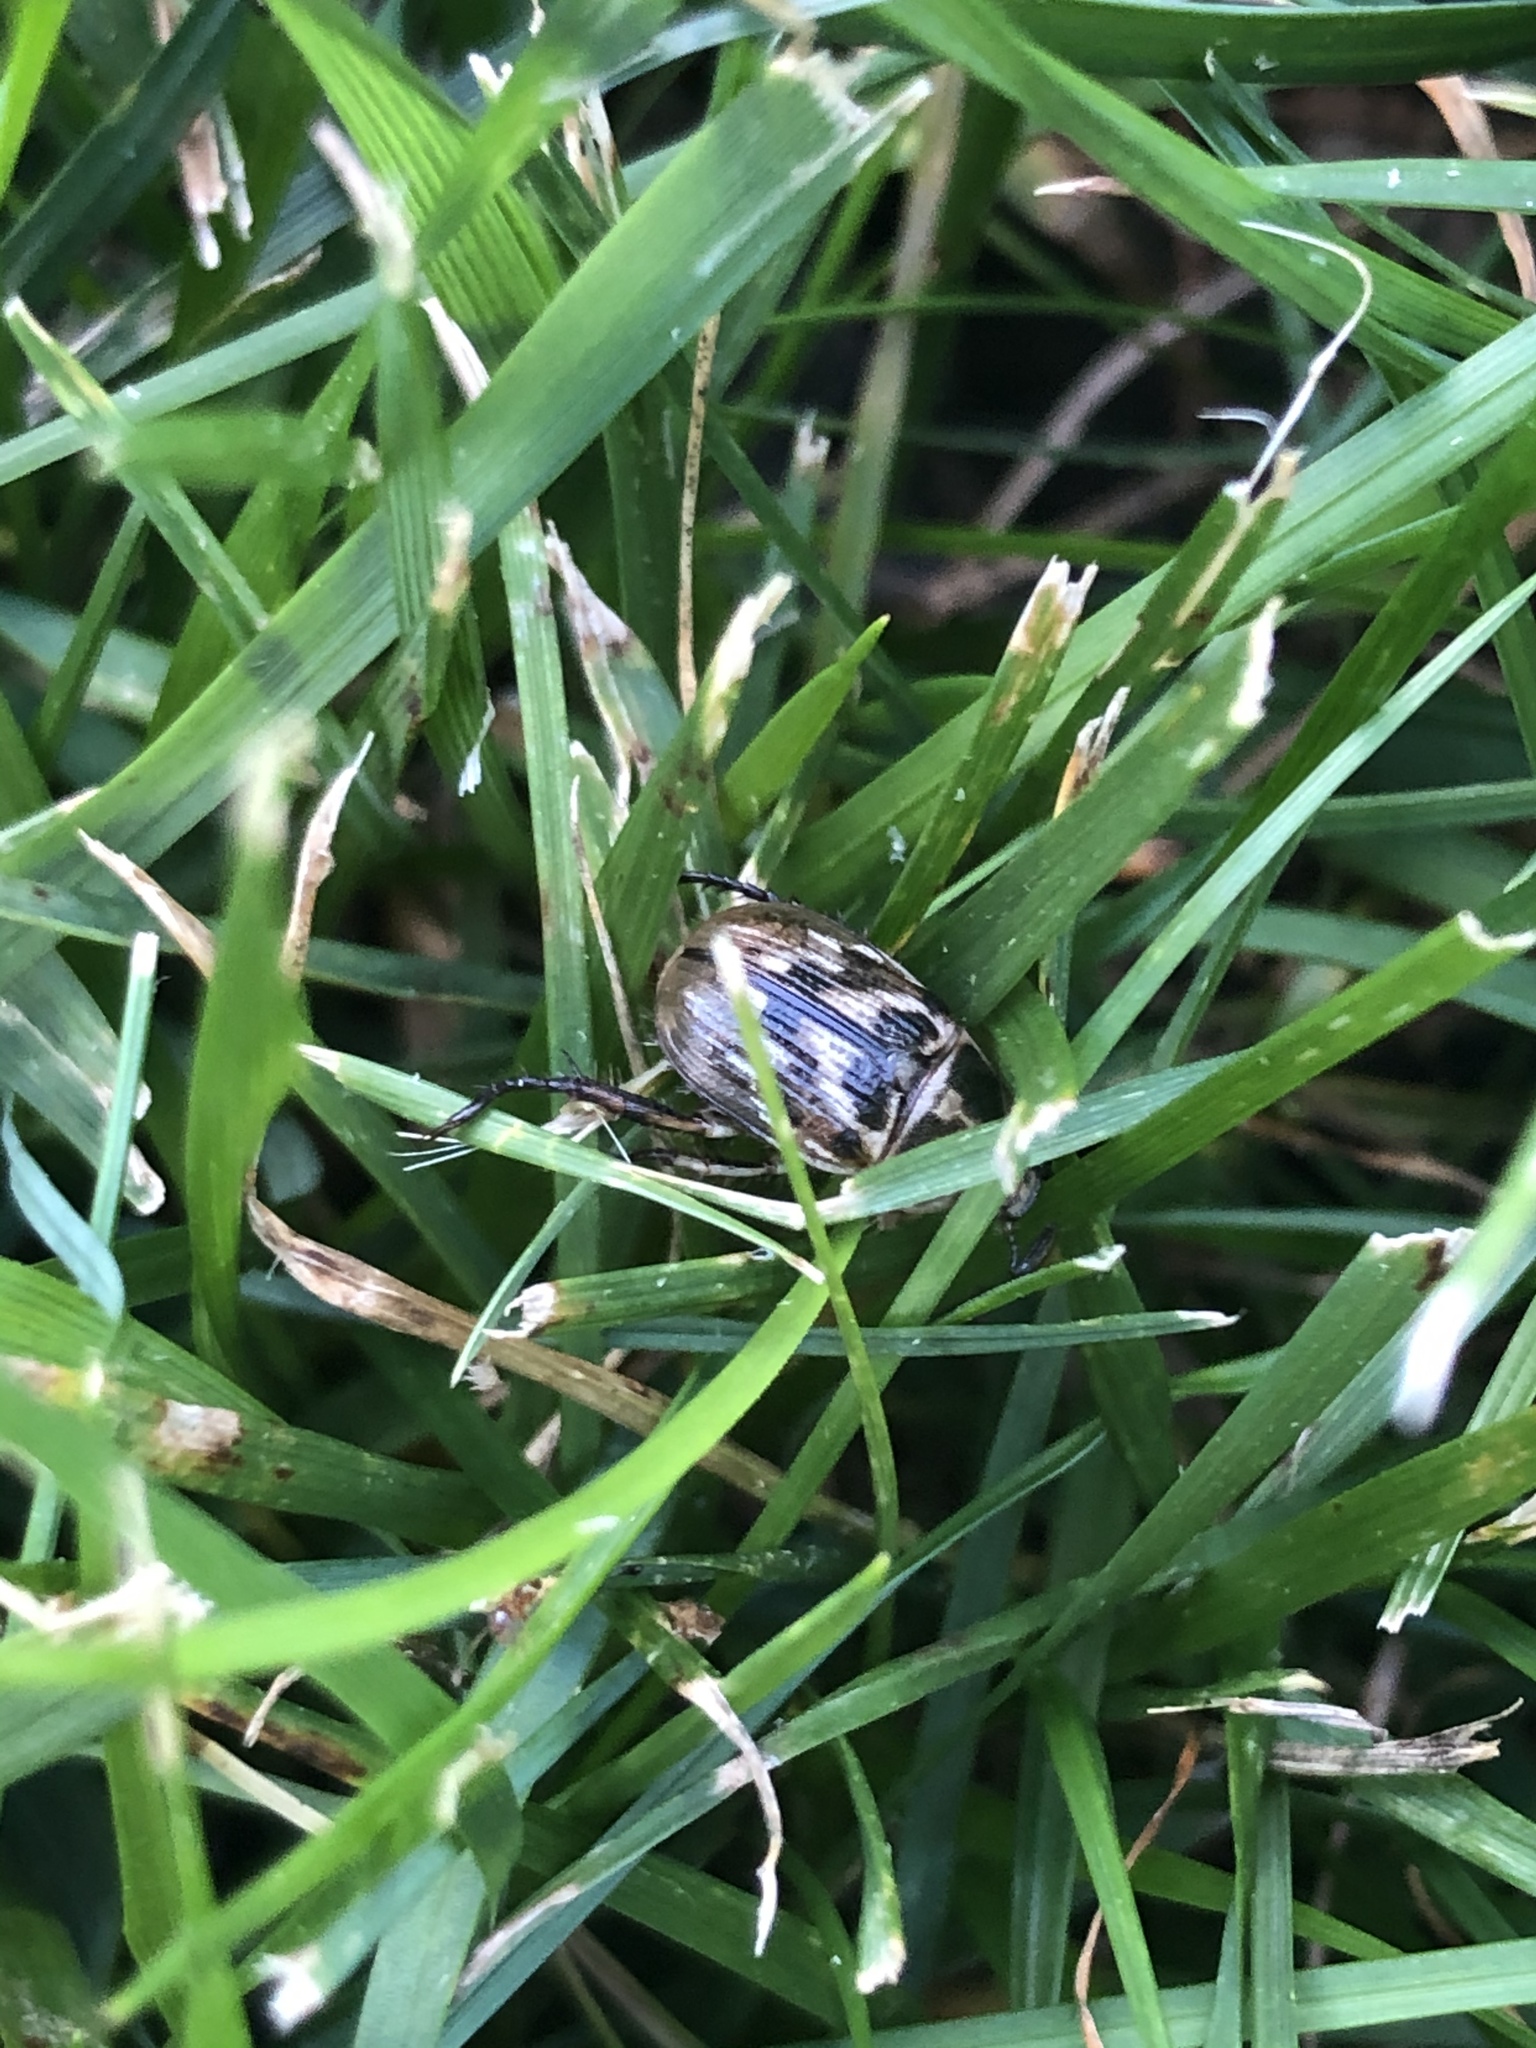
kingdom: Animalia
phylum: Arthropoda
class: Insecta
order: Coleoptera
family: Scarabaeidae
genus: Exomala
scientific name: Exomala orientalis
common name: Oriental beetle
